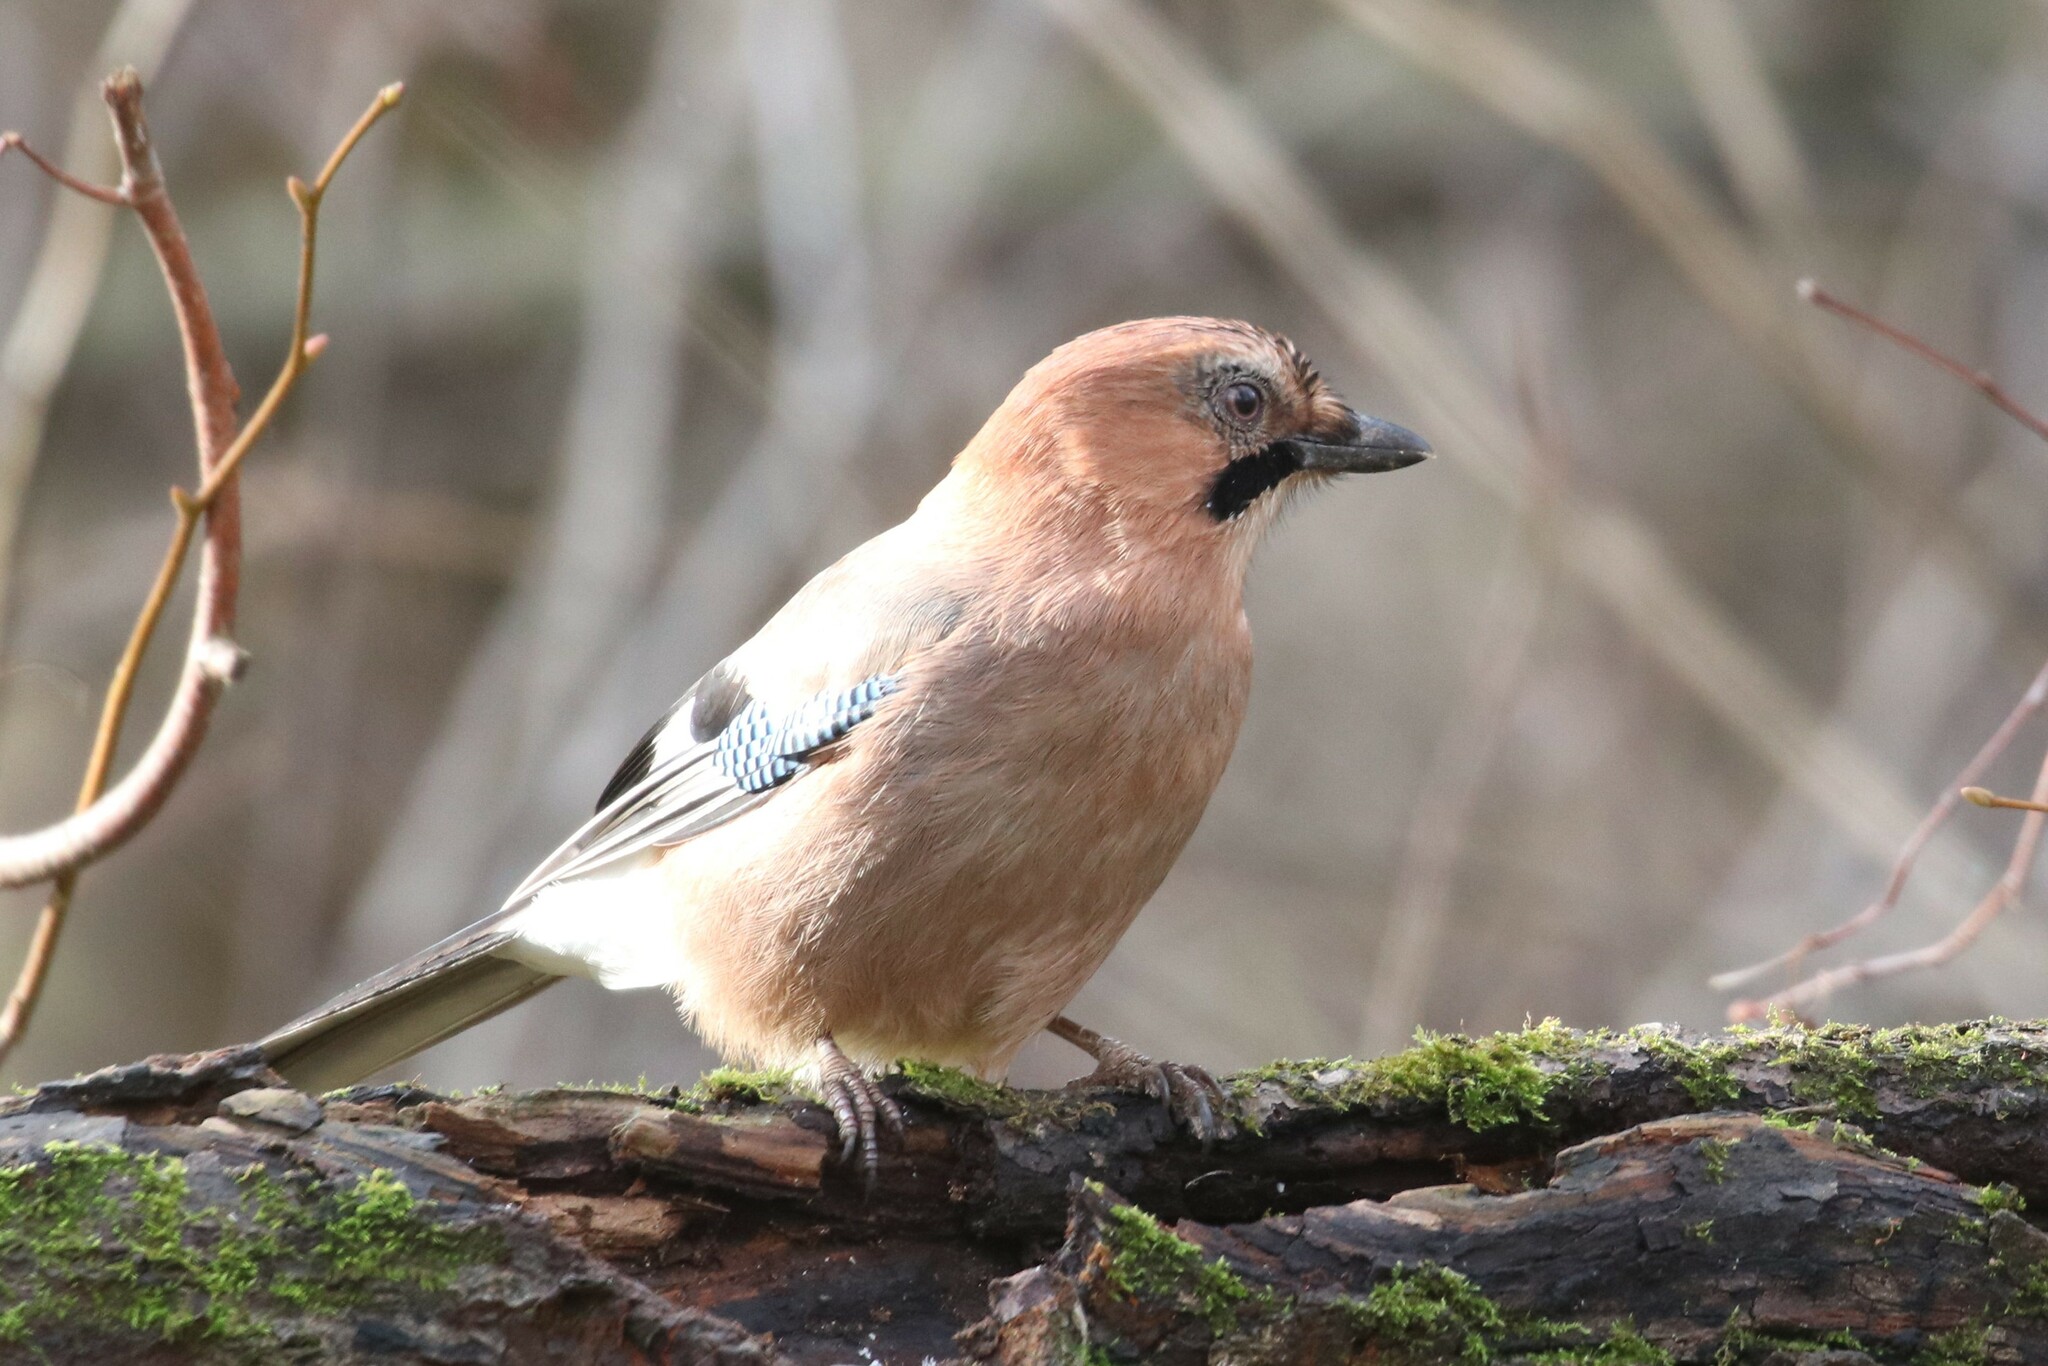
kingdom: Animalia
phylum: Chordata
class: Aves
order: Passeriformes
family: Corvidae
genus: Garrulus
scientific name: Garrulus glandarius
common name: Eurasian jay
